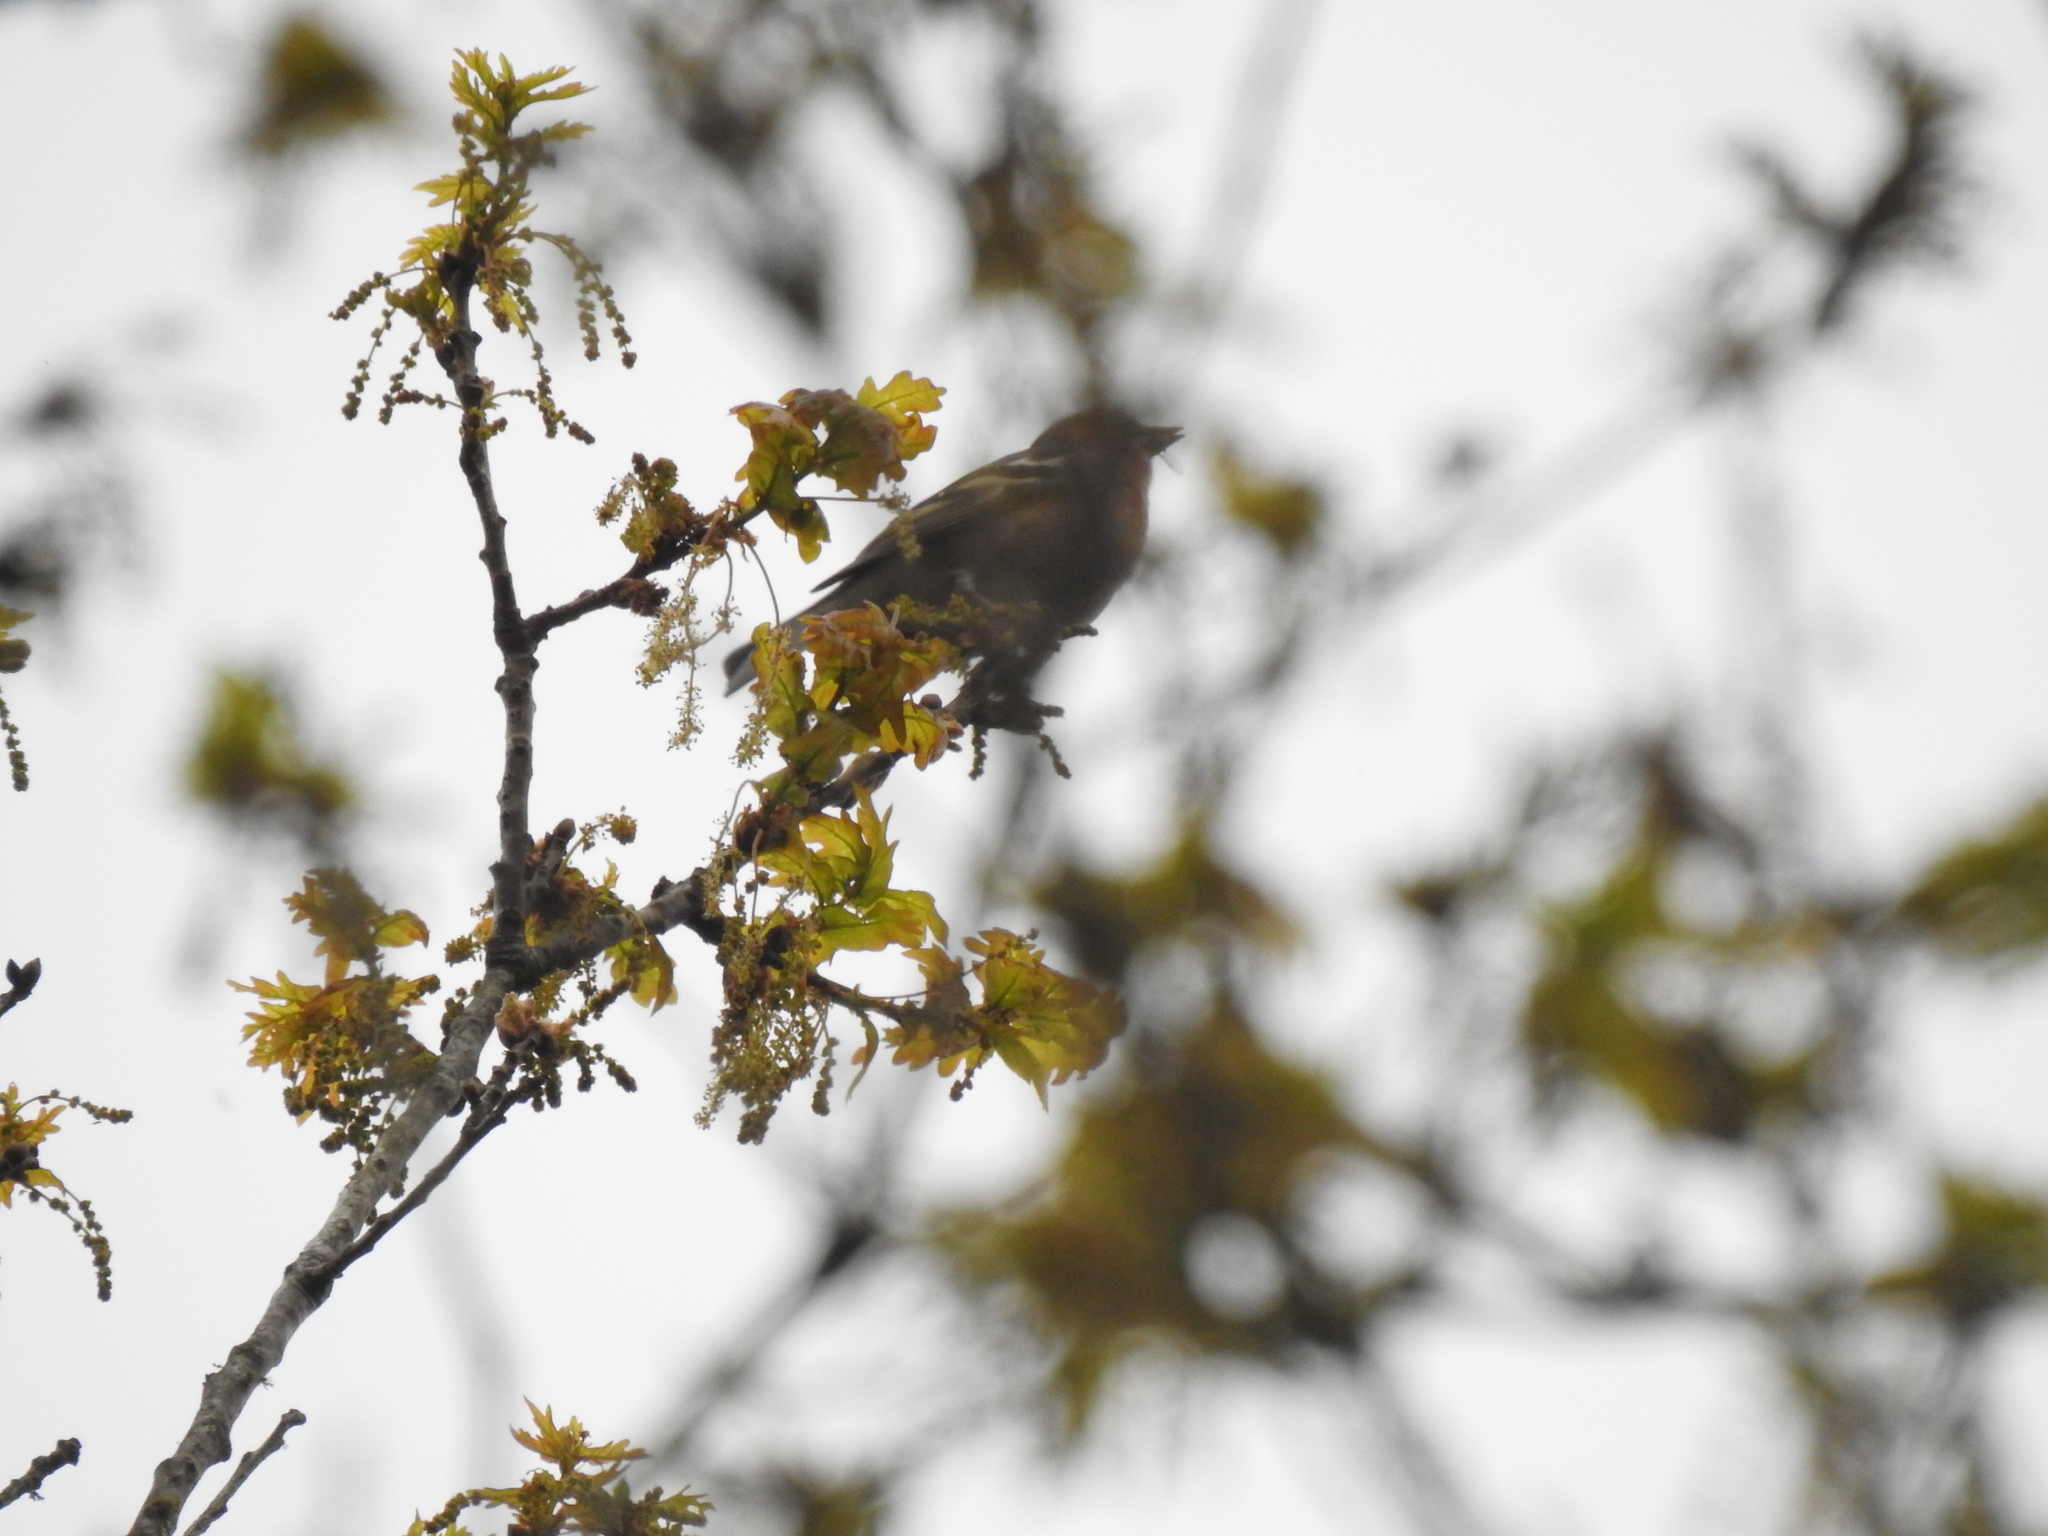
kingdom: Animalia
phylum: Chordata
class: Aves
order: Passeriformes
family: Fringillidae
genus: Fringilla
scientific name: Fringilla coelebs
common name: Common chaffinch
